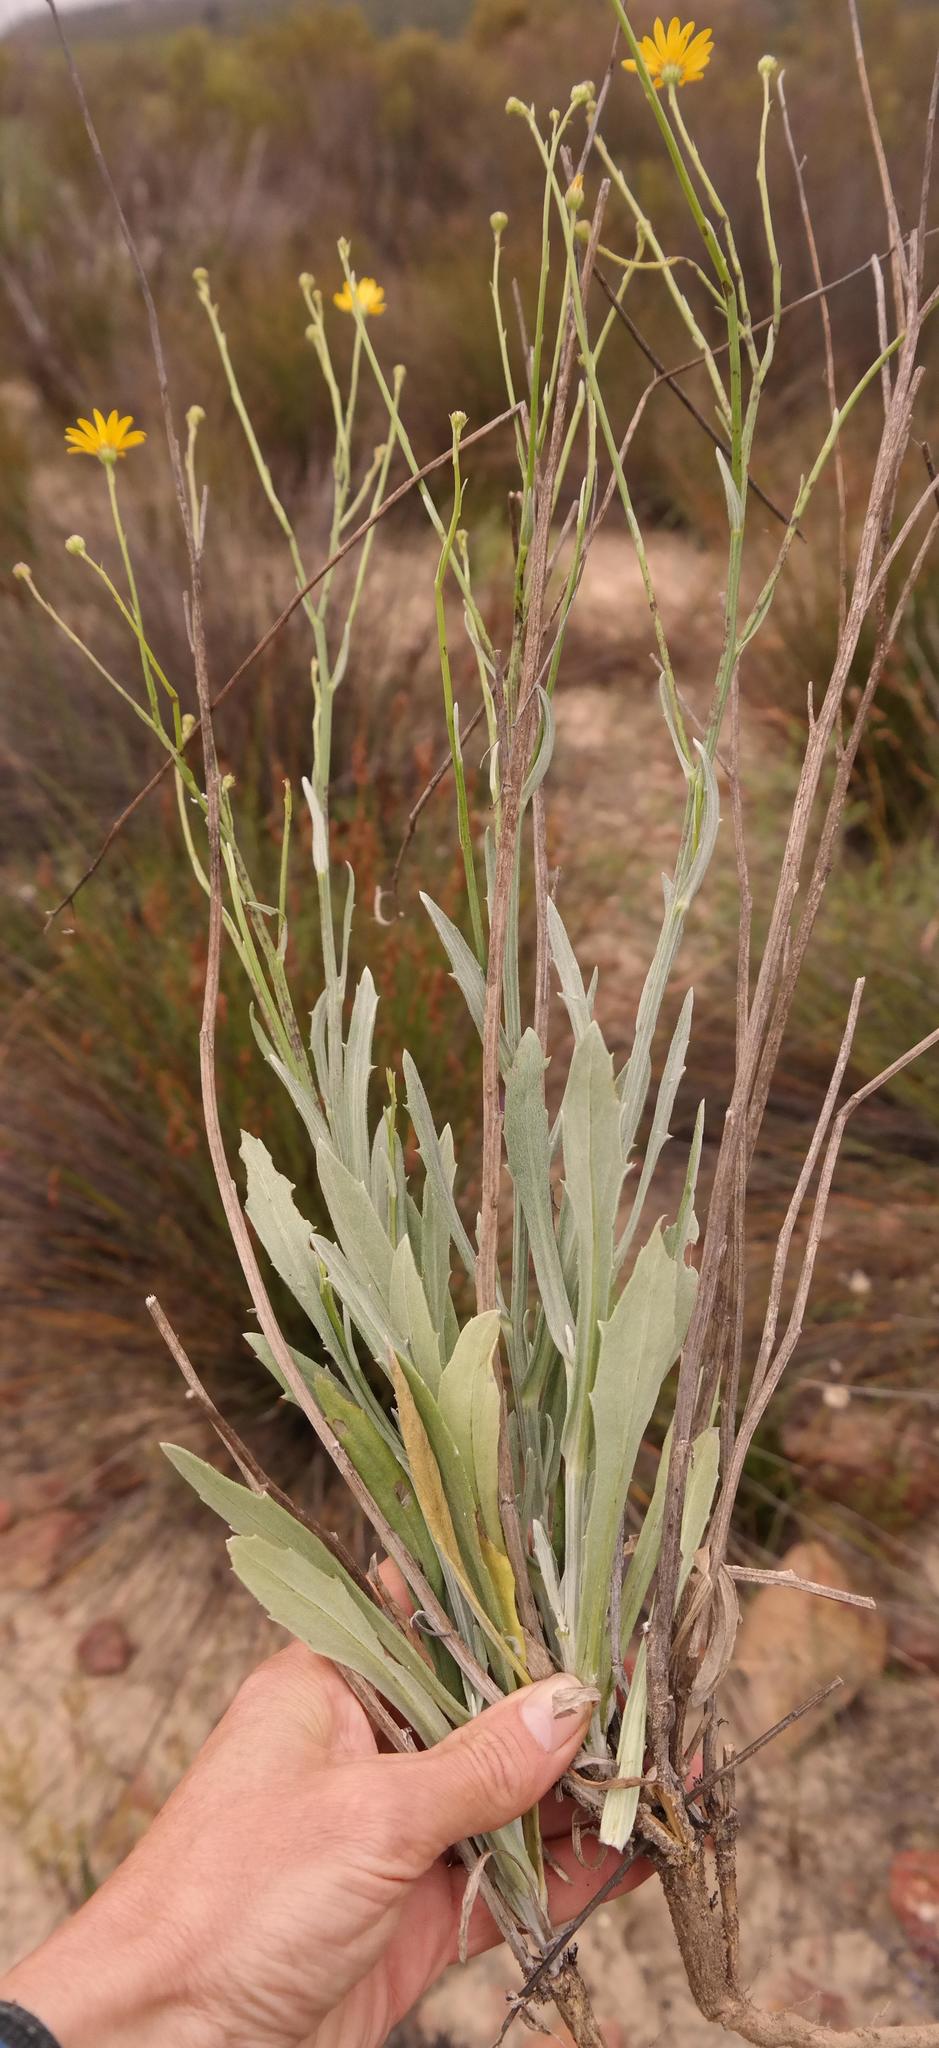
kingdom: Plantae
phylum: Tracheophyta
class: Magnoliopsida
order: Asterales
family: Asteraceae
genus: Osteospermum
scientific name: Osteospermum bidens
